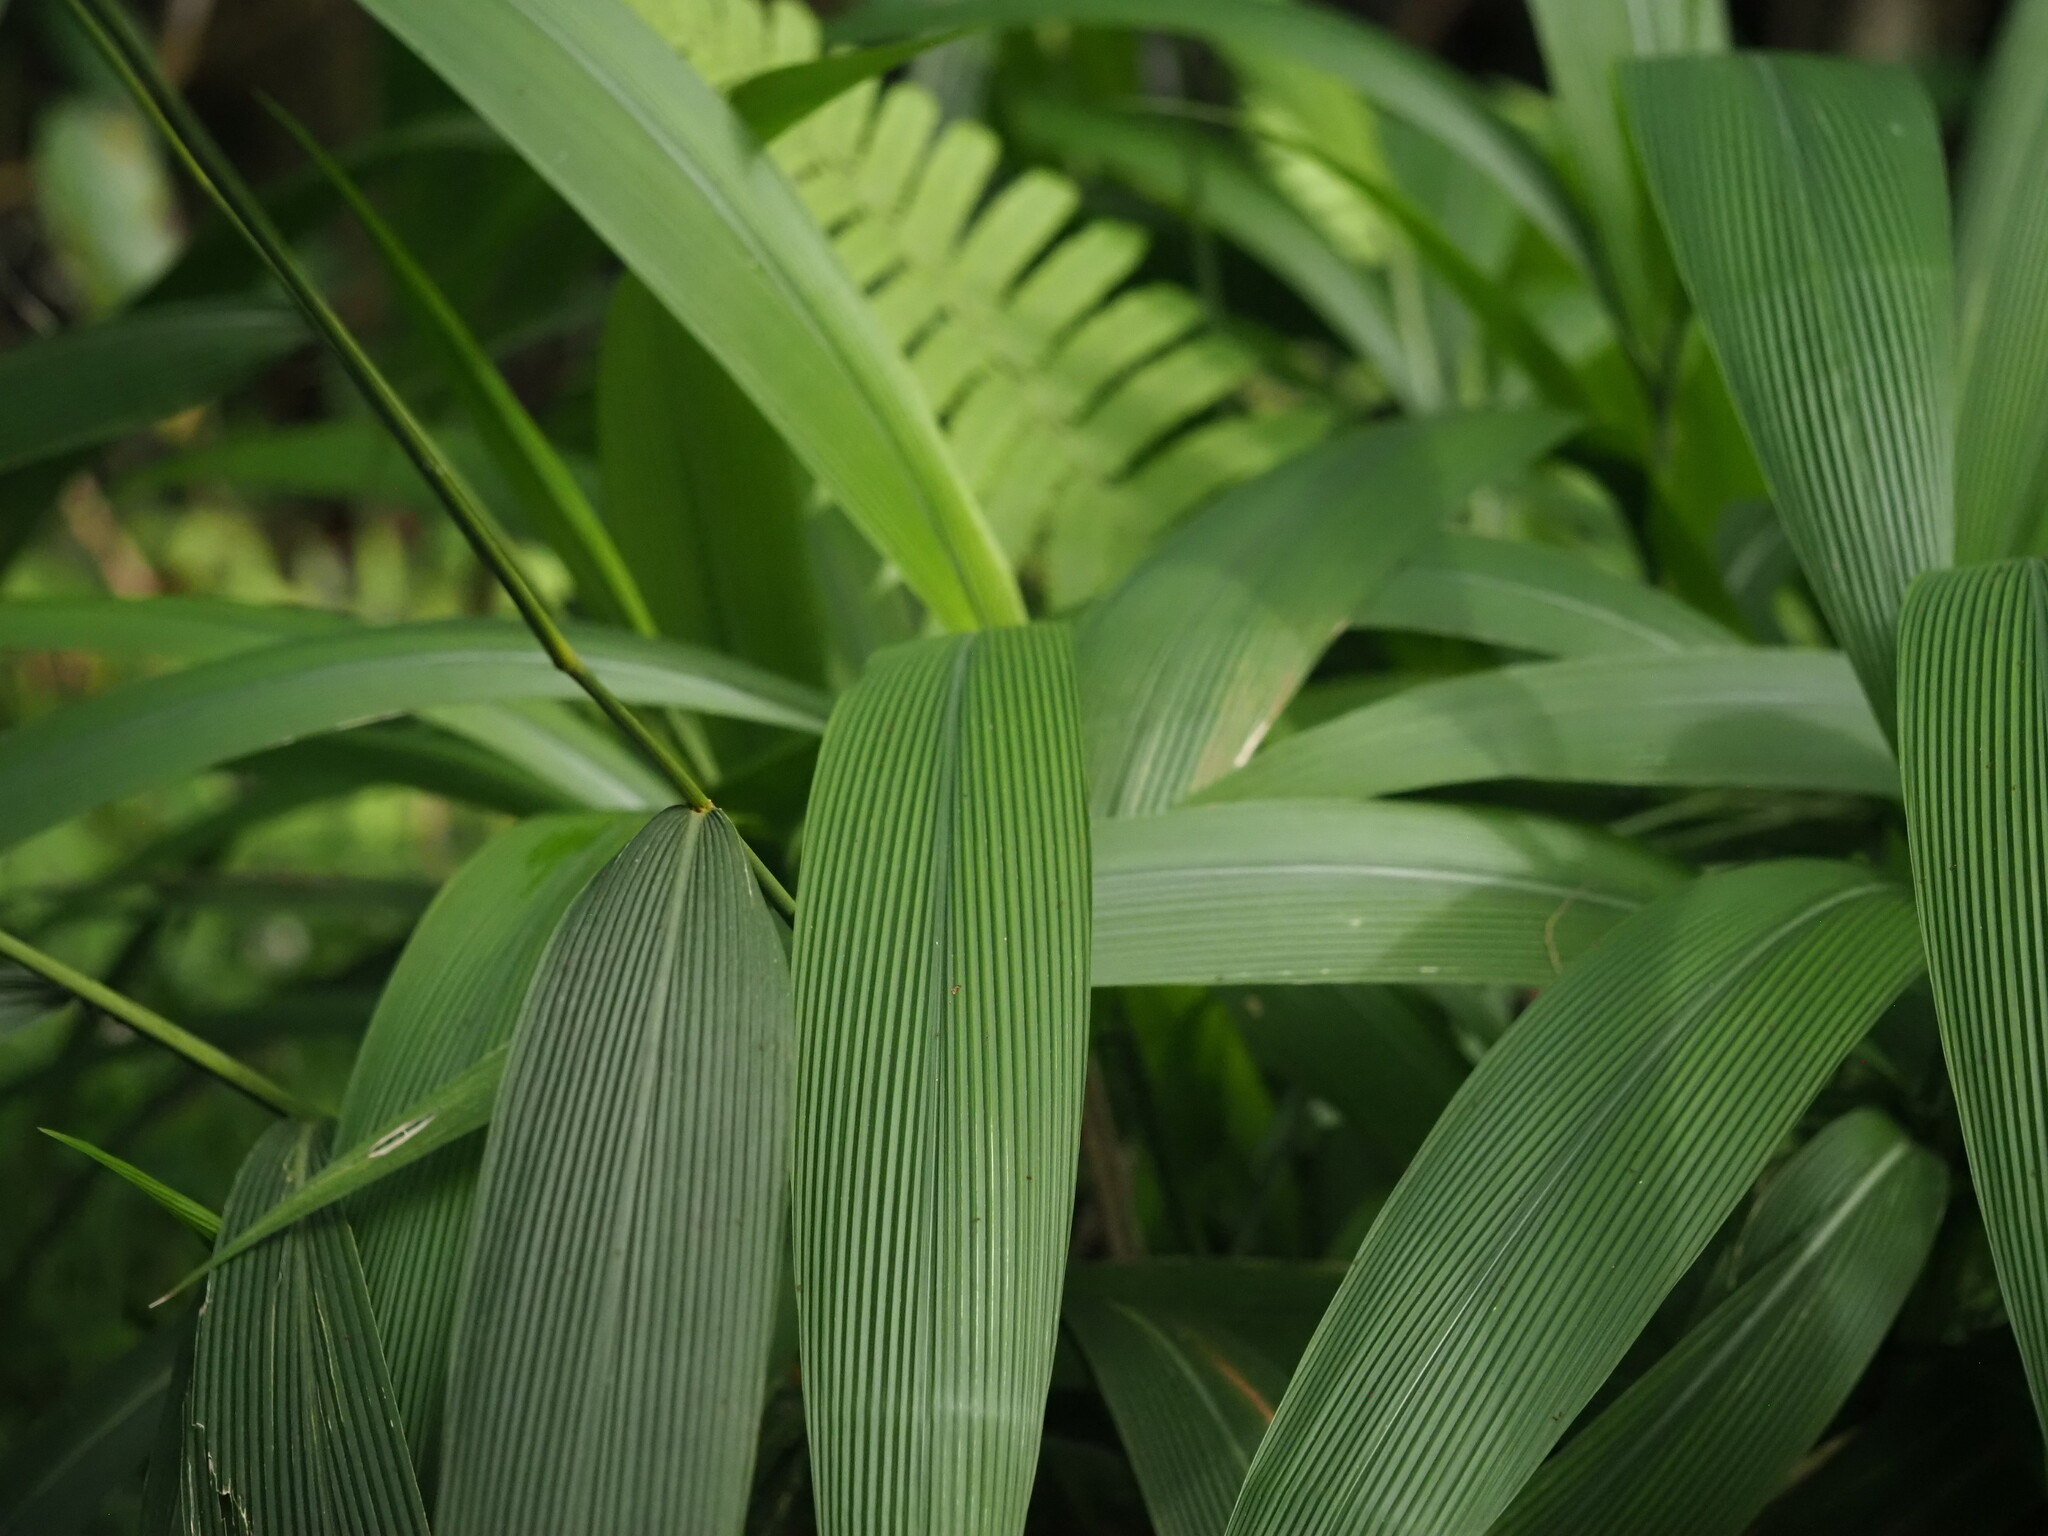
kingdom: Plantae
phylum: Tracheophyta
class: Liliopsida
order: Poales
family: Poaceae
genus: Setaria
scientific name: Setaria palmifolia
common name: Broadleaved bristlegrass
